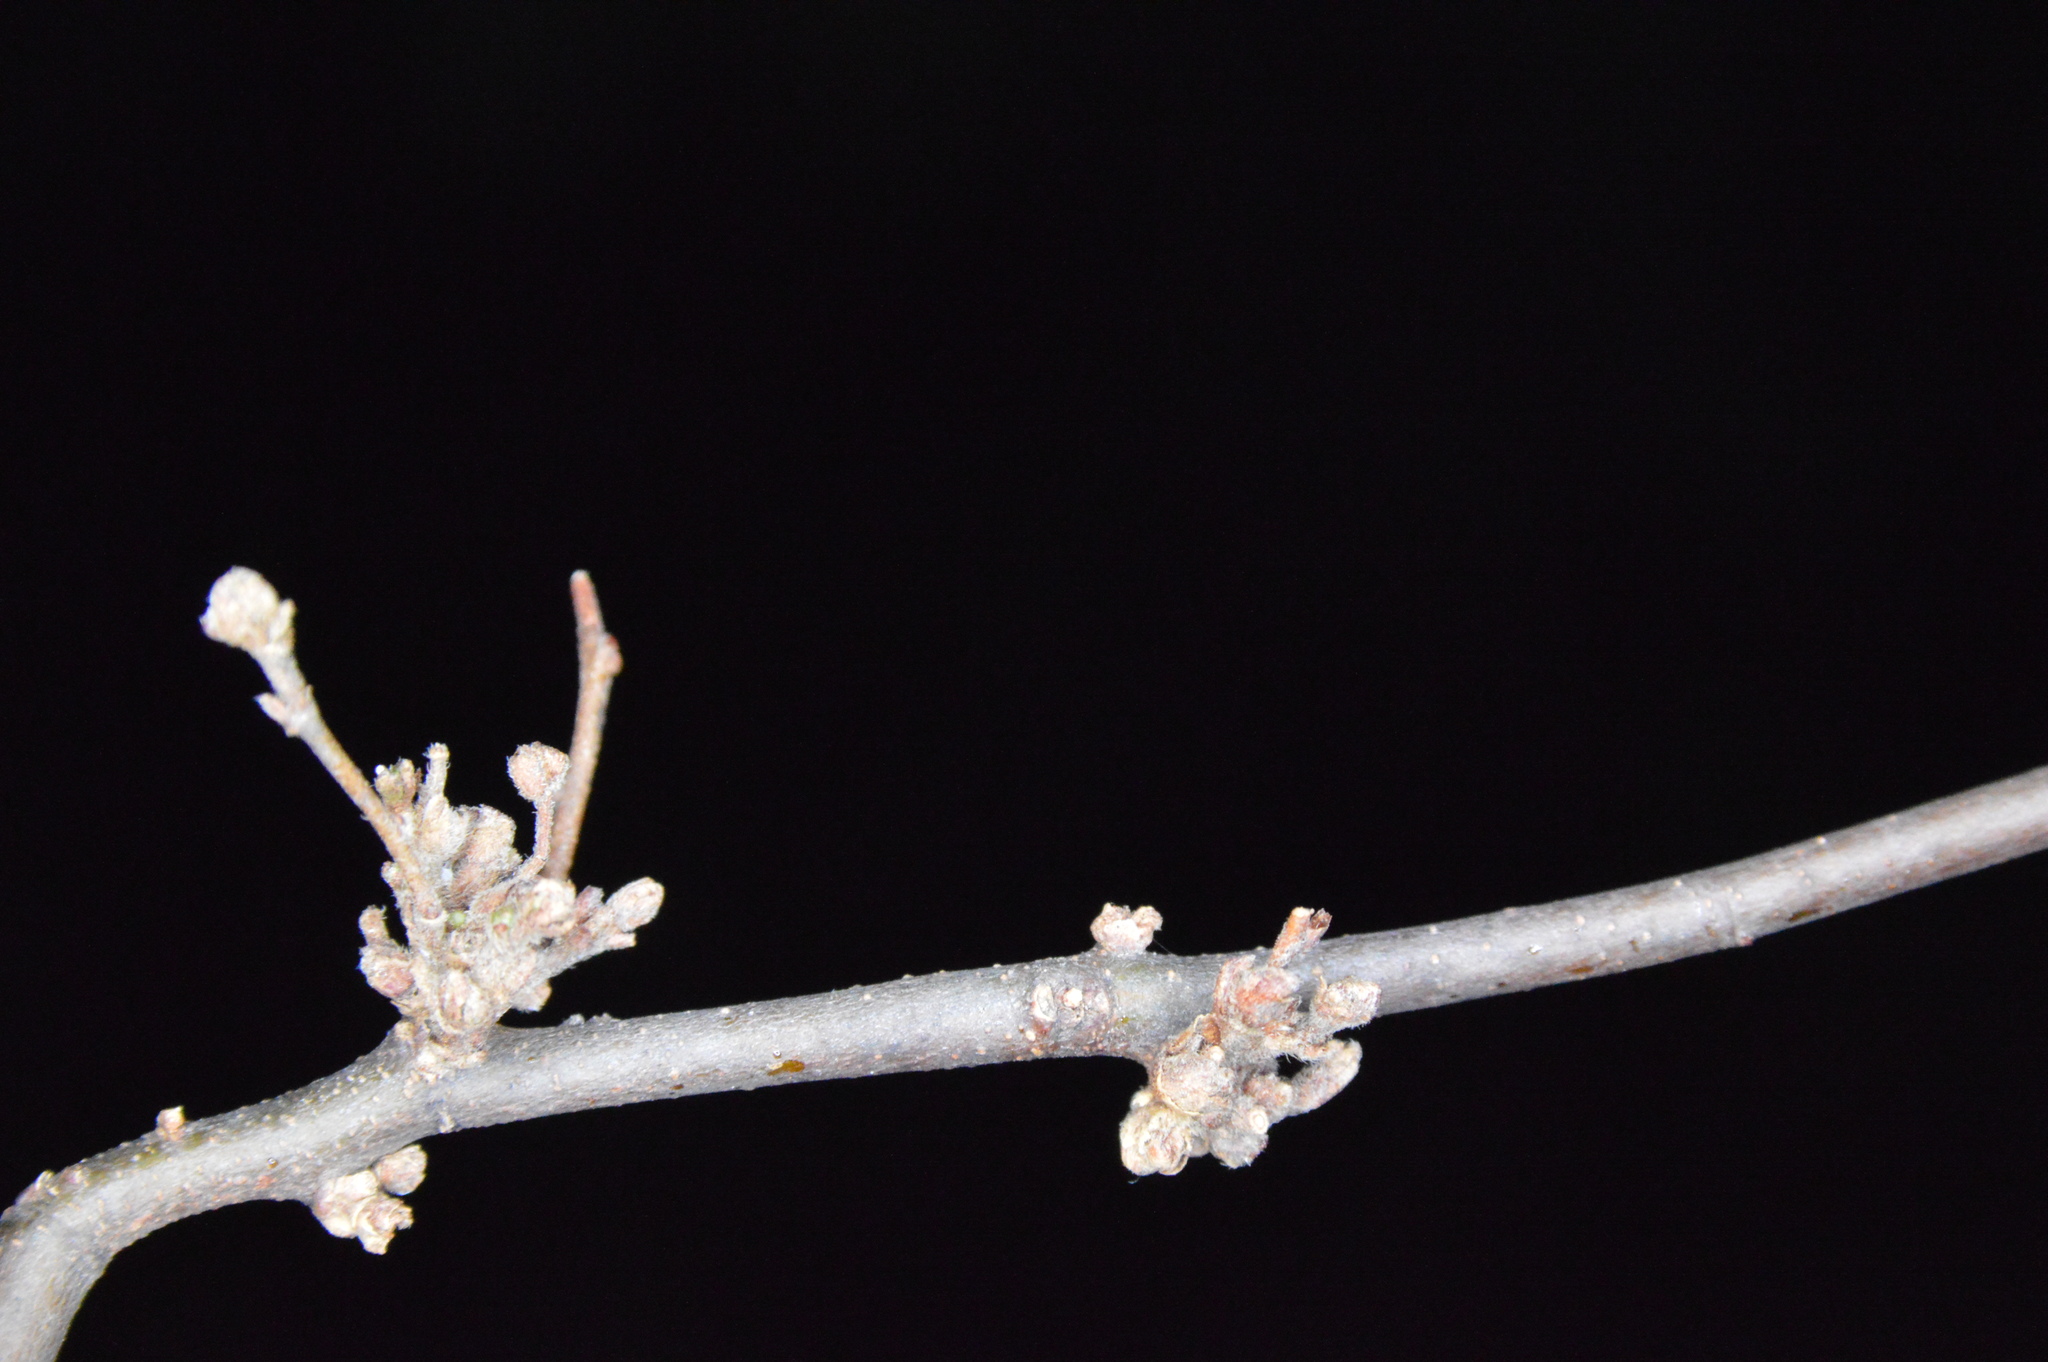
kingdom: Animalia
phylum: Arthropoda
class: Arachnida
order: Trombidiformes
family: Eriophyidae
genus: Aceria
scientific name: Aceria
